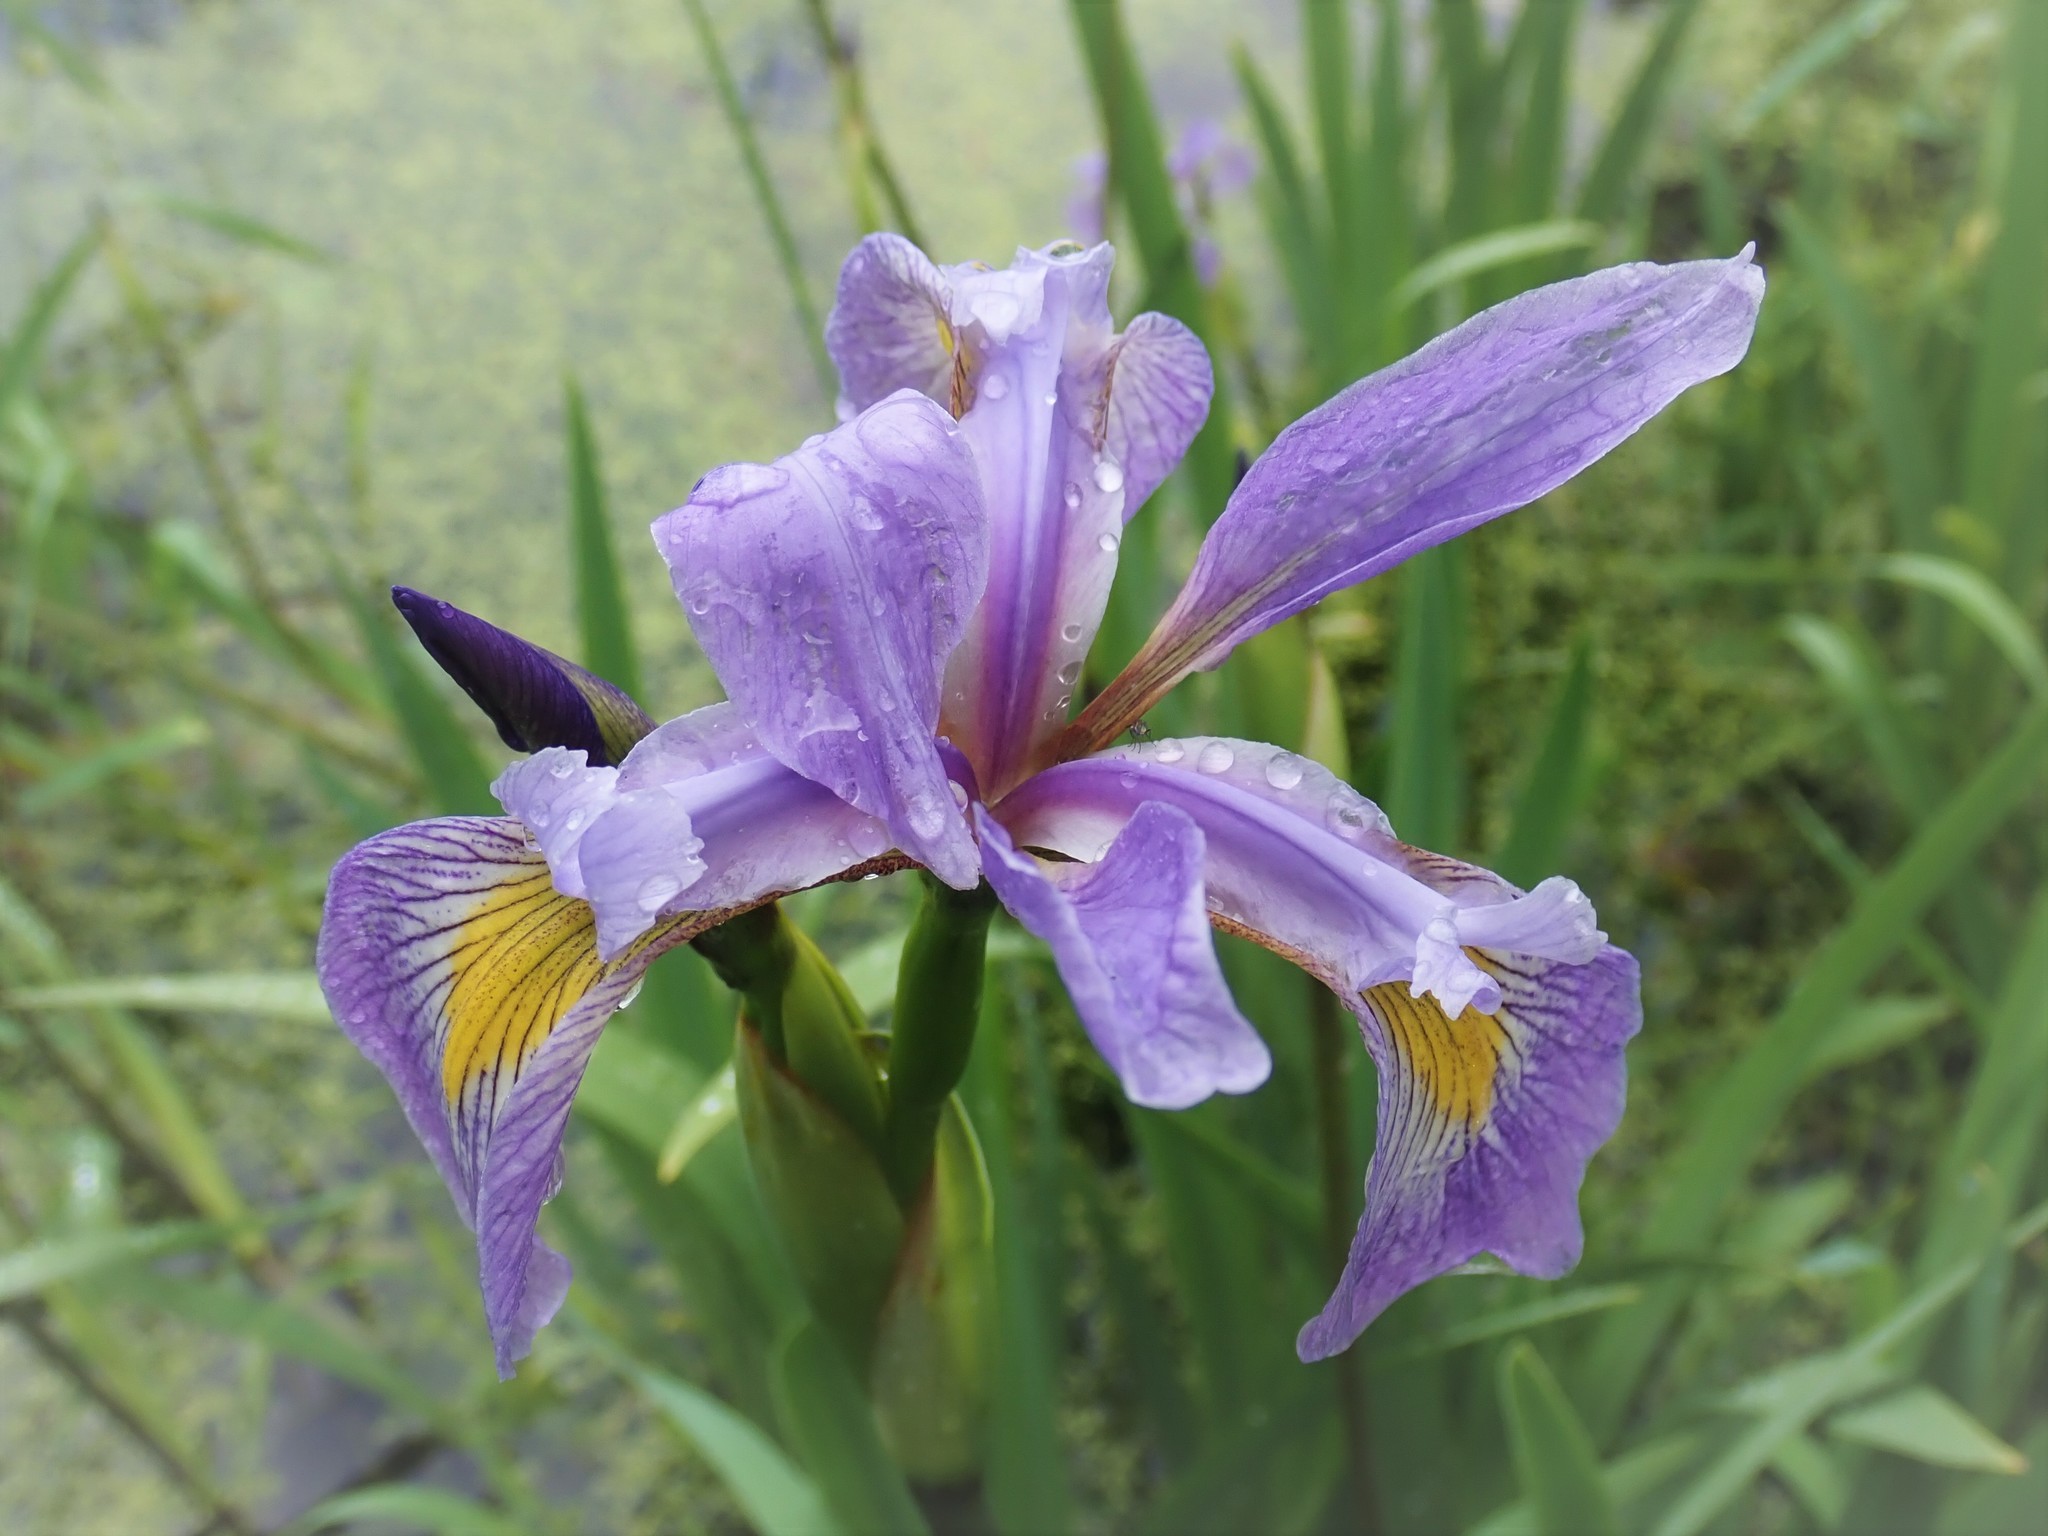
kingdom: Plantae
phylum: Tracheophyta
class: Liliopsida
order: Asparagales
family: Iridaceae
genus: Iris
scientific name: Iris virginica
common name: Southern blue flag
